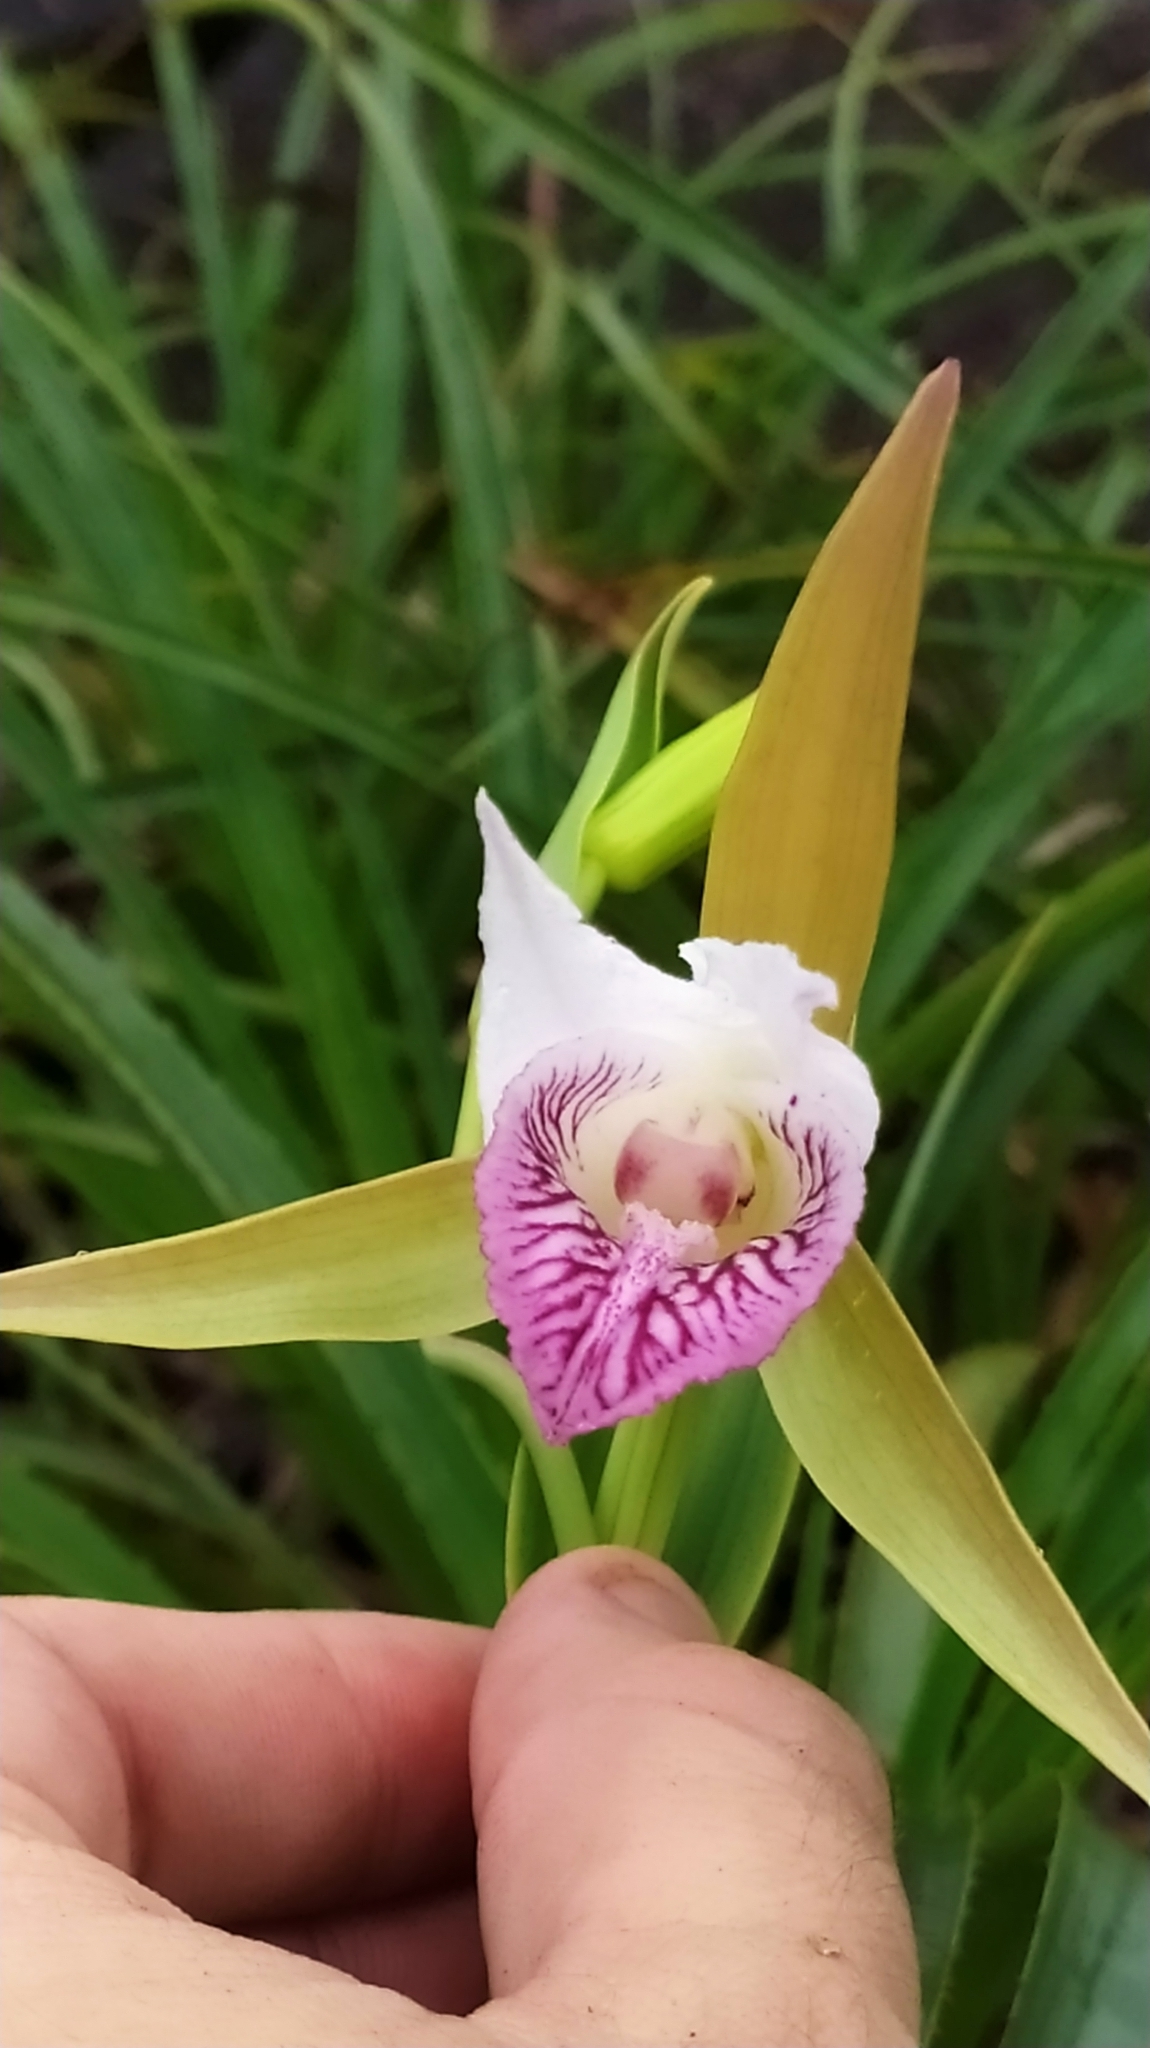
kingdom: Plantae
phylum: Tracheophyta
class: Liliopsida
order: Asparagales
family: Orchidaceae
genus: Cleistes
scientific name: Cleistes grandiflora
